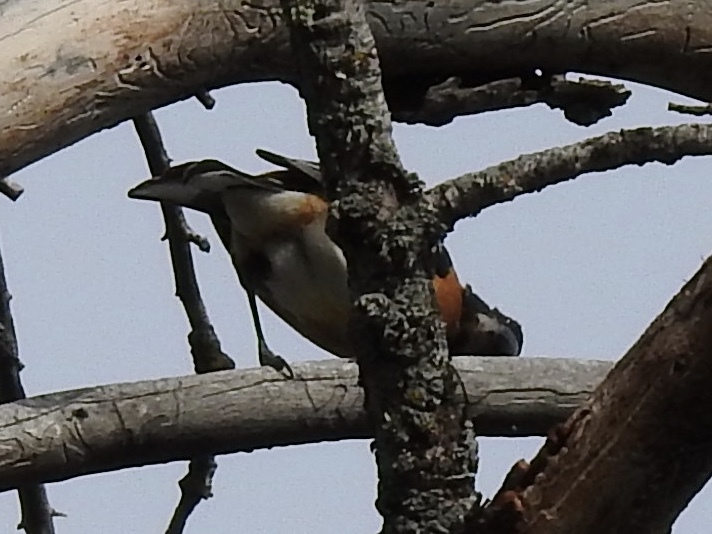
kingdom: Animalia
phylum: Chordata
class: Aves
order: Passeriformes
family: Cardinalidae
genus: Pheucticus
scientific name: Pheucticus melanocephalus
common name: Black-headed grosbeak
